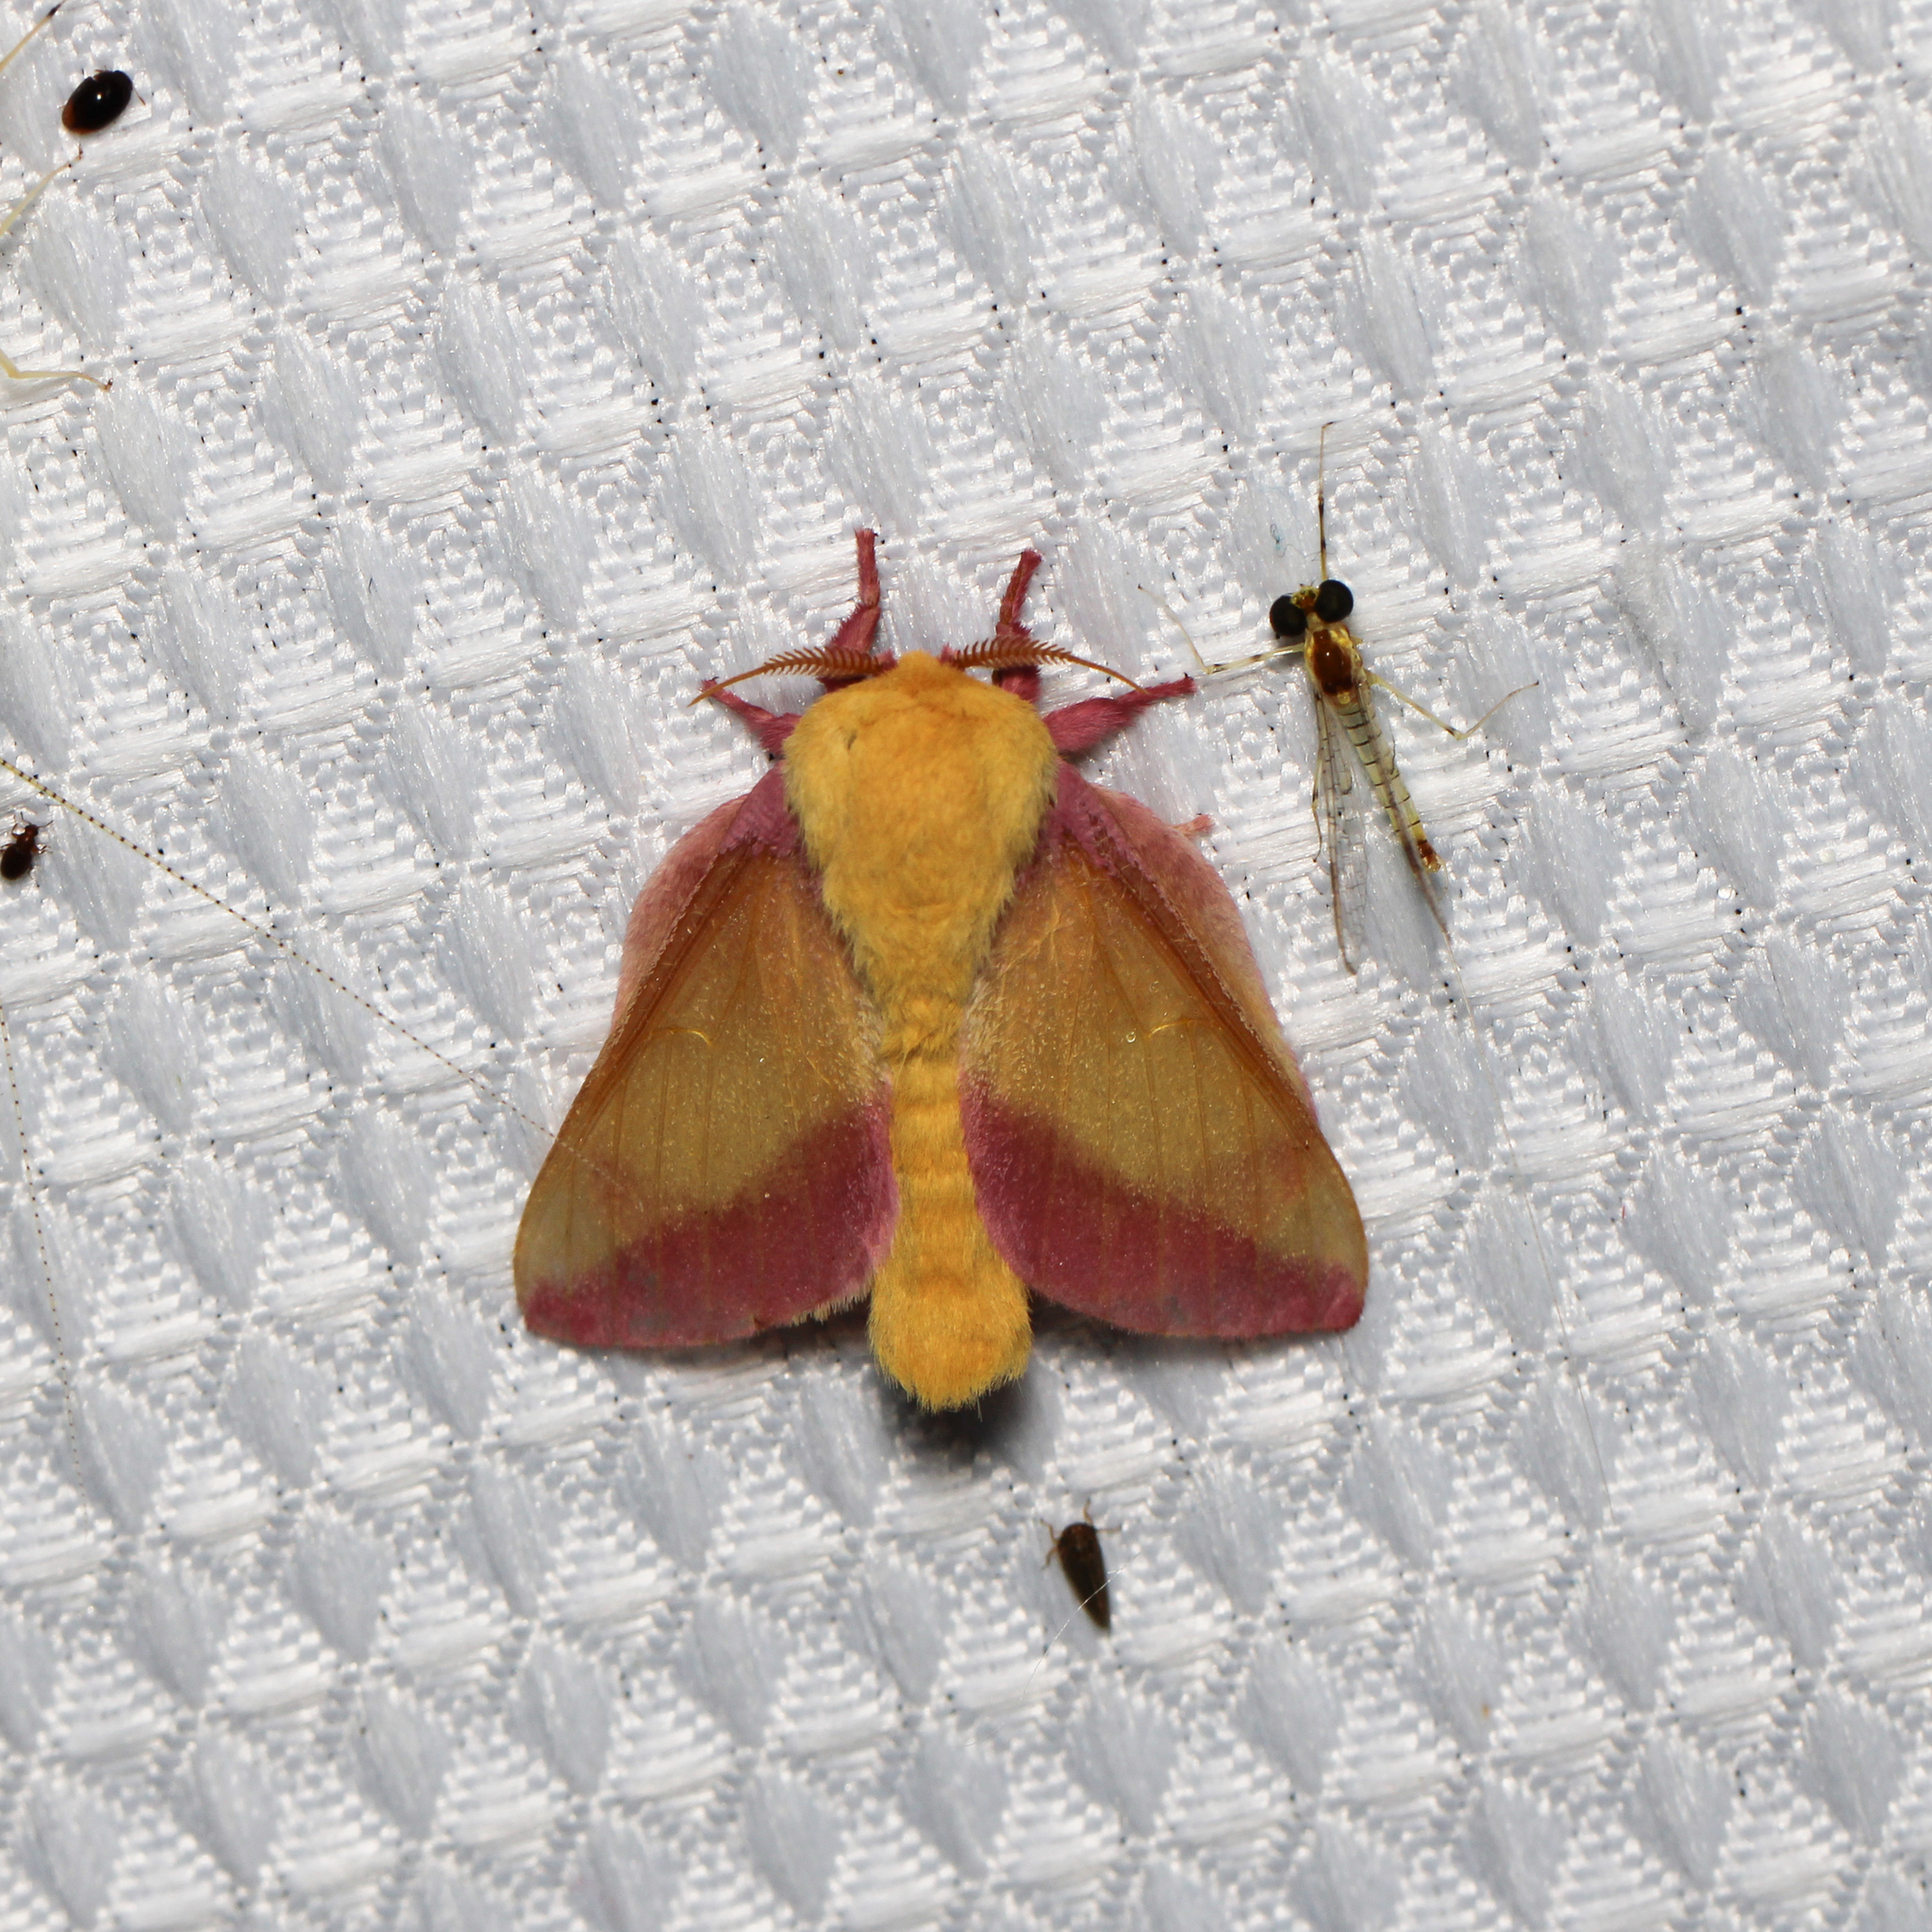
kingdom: Animalia
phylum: Arthropoda
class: Insecta
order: Lepidoptera
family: Saturniidae
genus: Dryocampa
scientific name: Dryocampa rubicunda
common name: Rosy maple moth
